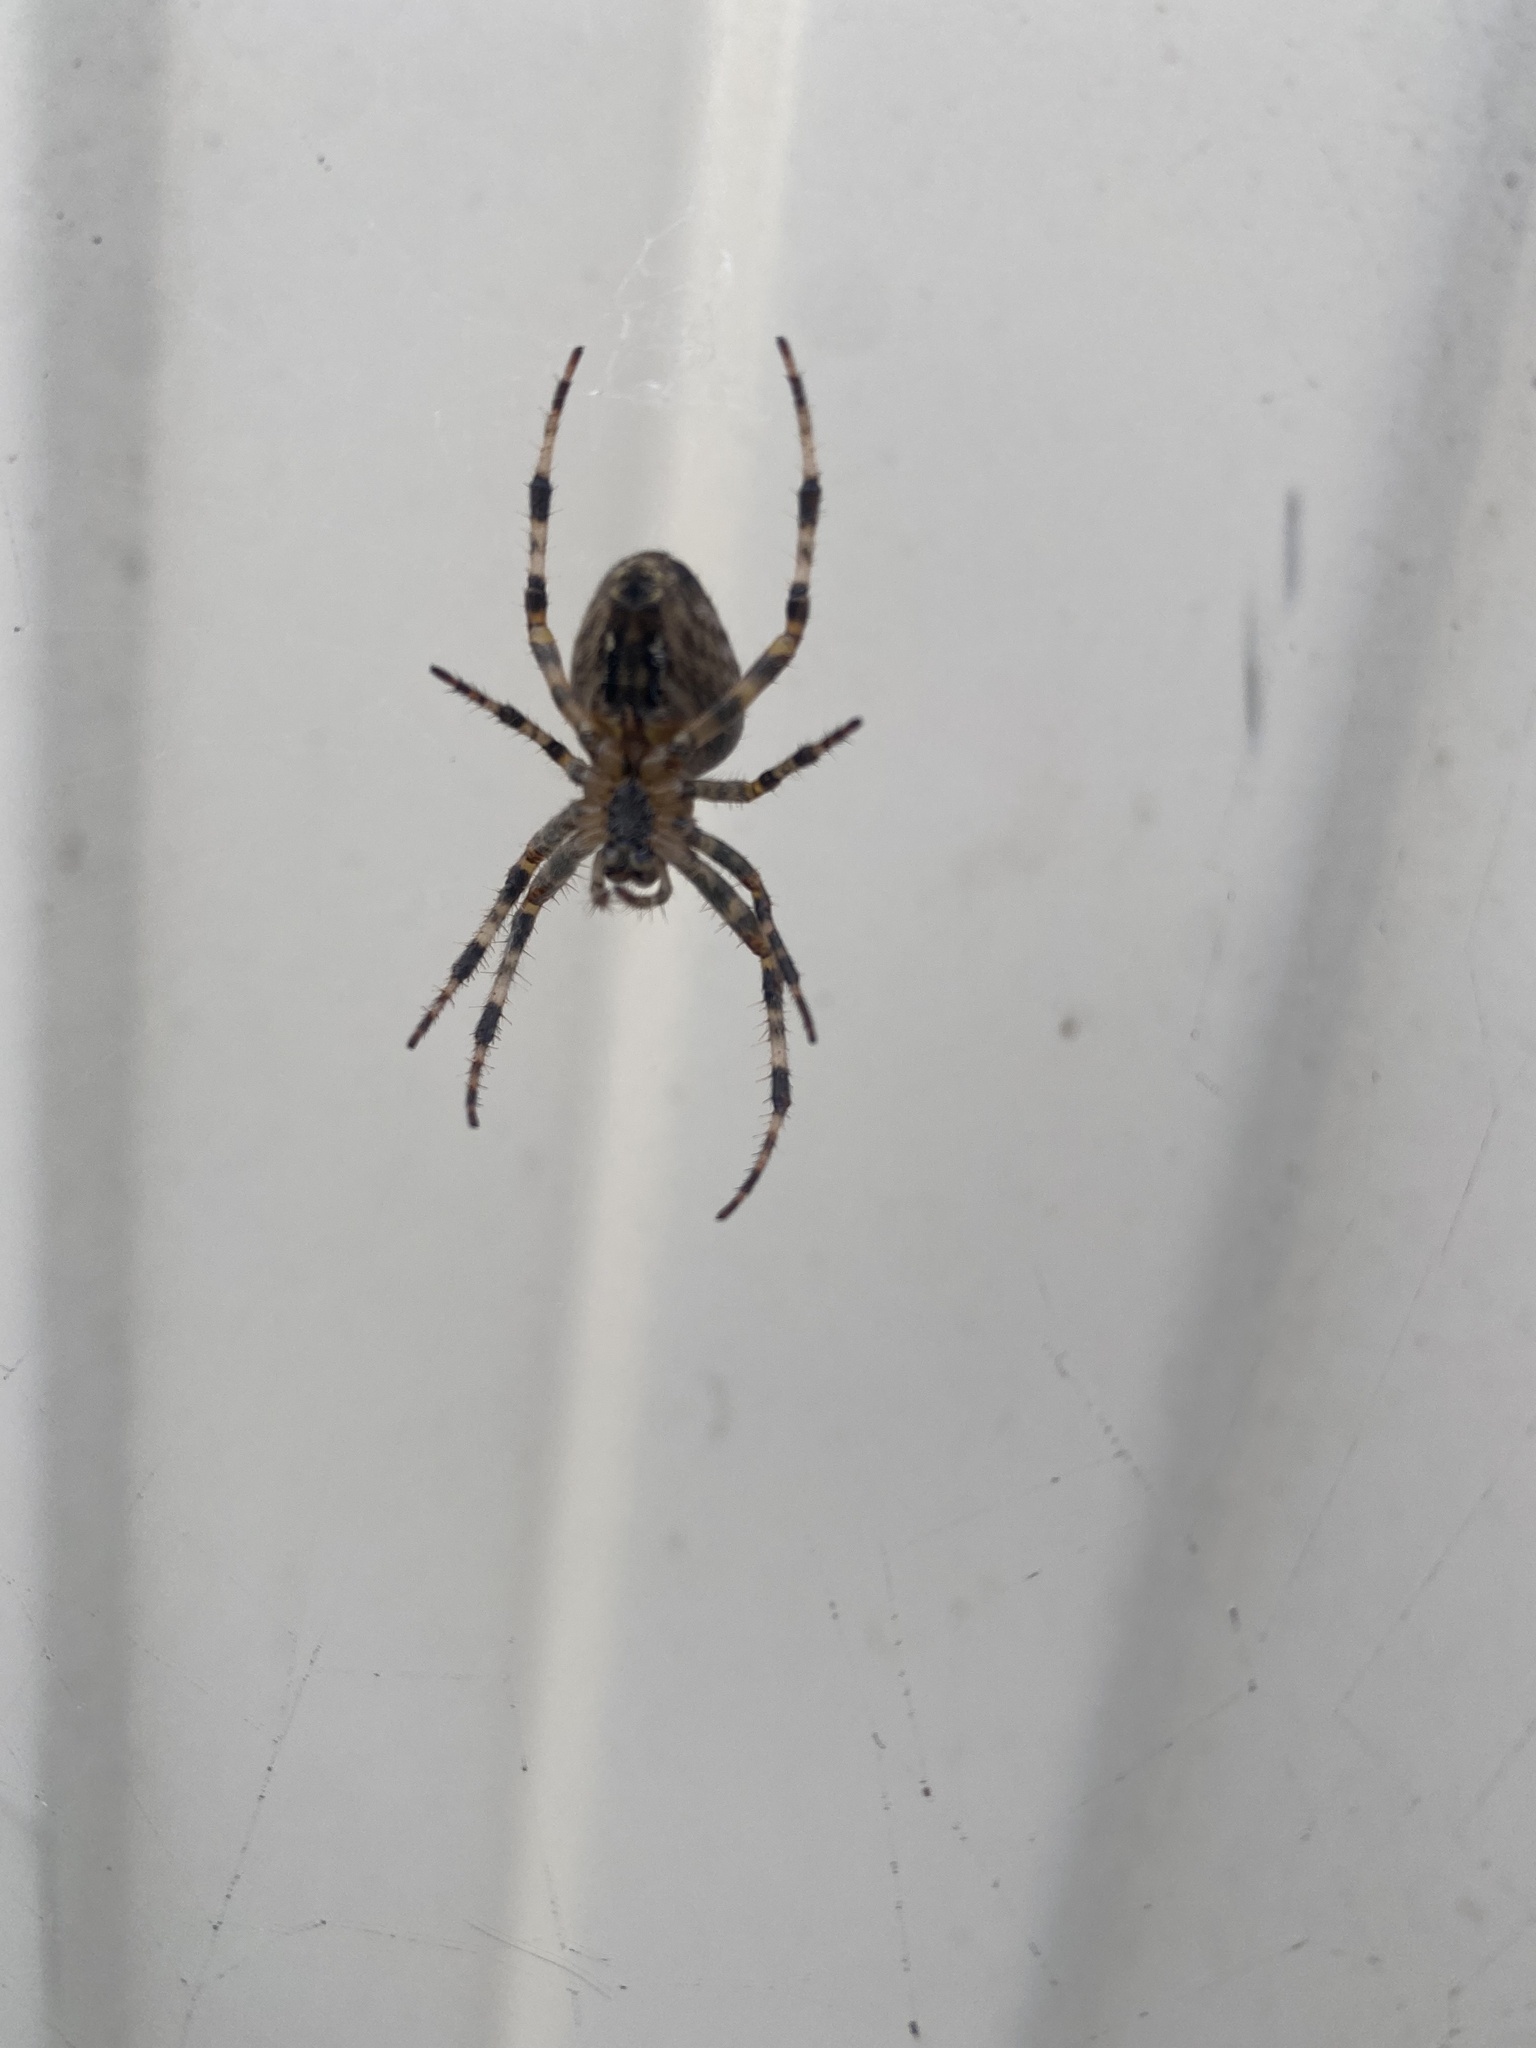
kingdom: Animalia
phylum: Arthropoda
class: Arachnida
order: Araneae
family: Araneidae
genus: Araneus
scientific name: Araneus diadematus
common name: Cross orbweaver
